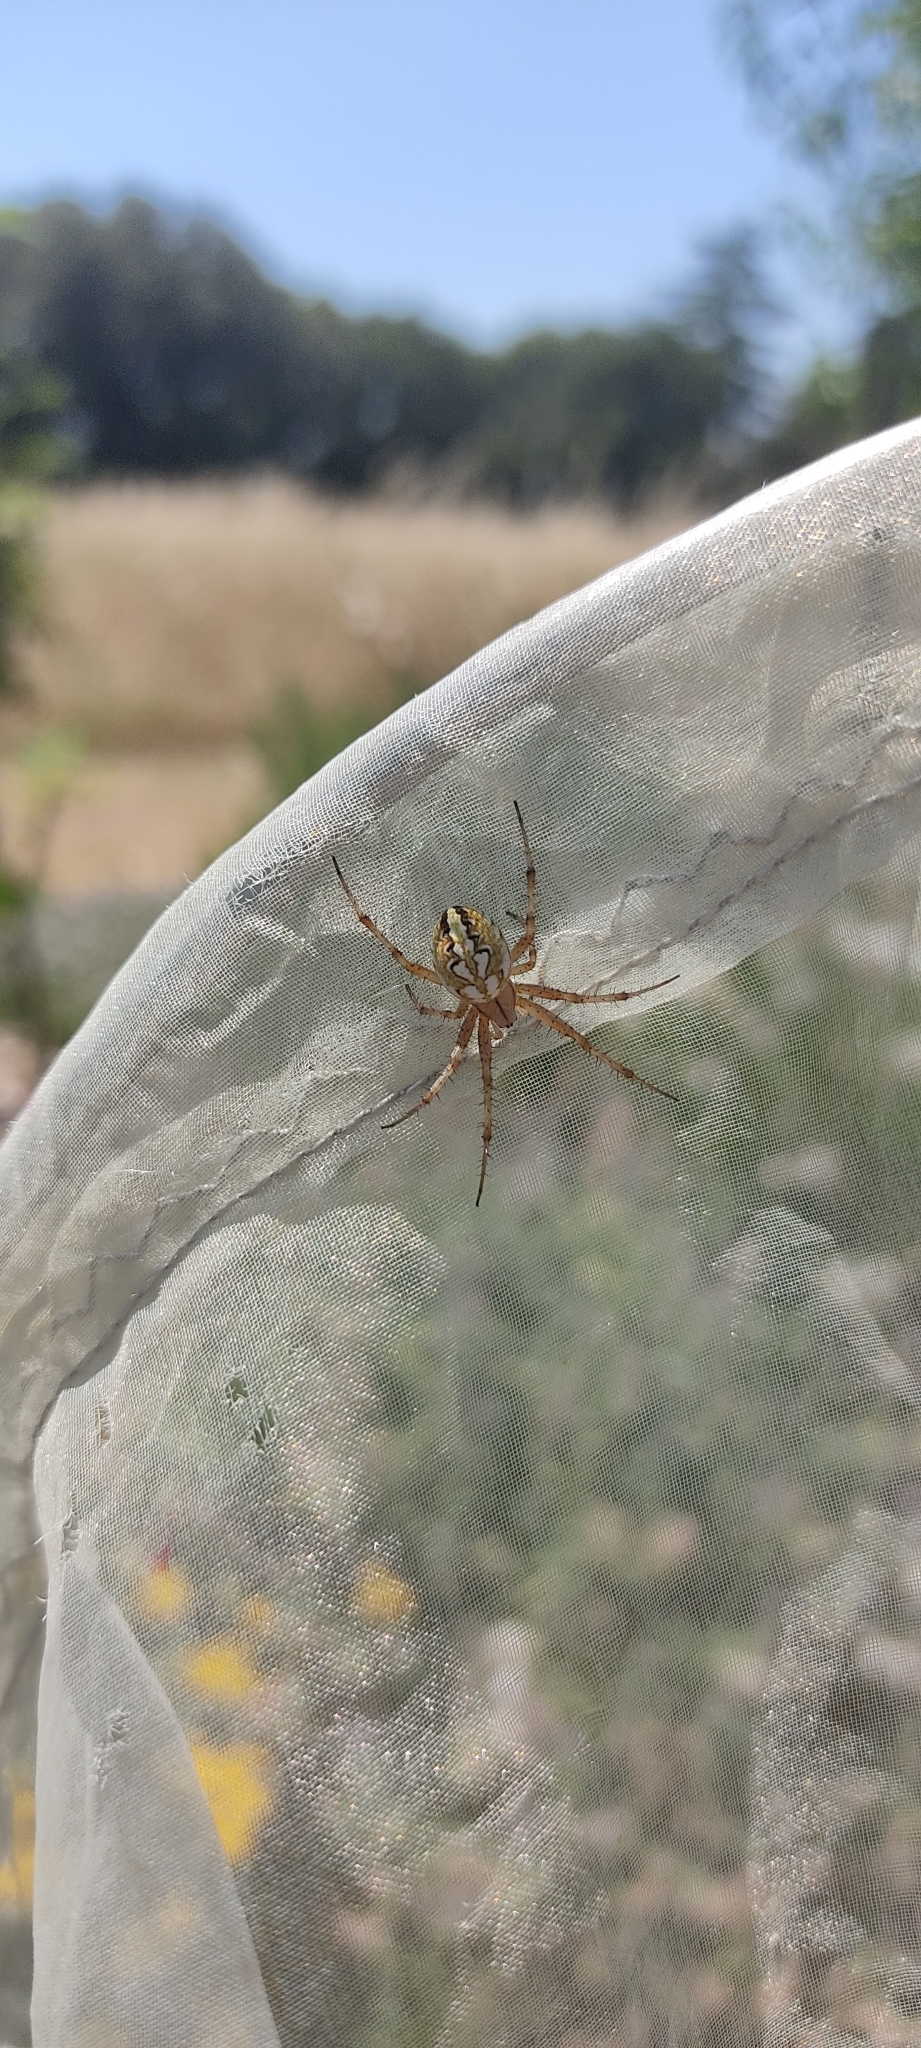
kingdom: Animalia
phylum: Arthropoda
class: Arachnida
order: Araneae
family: Araneidae
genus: Neoscona
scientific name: Neoscona adianta
